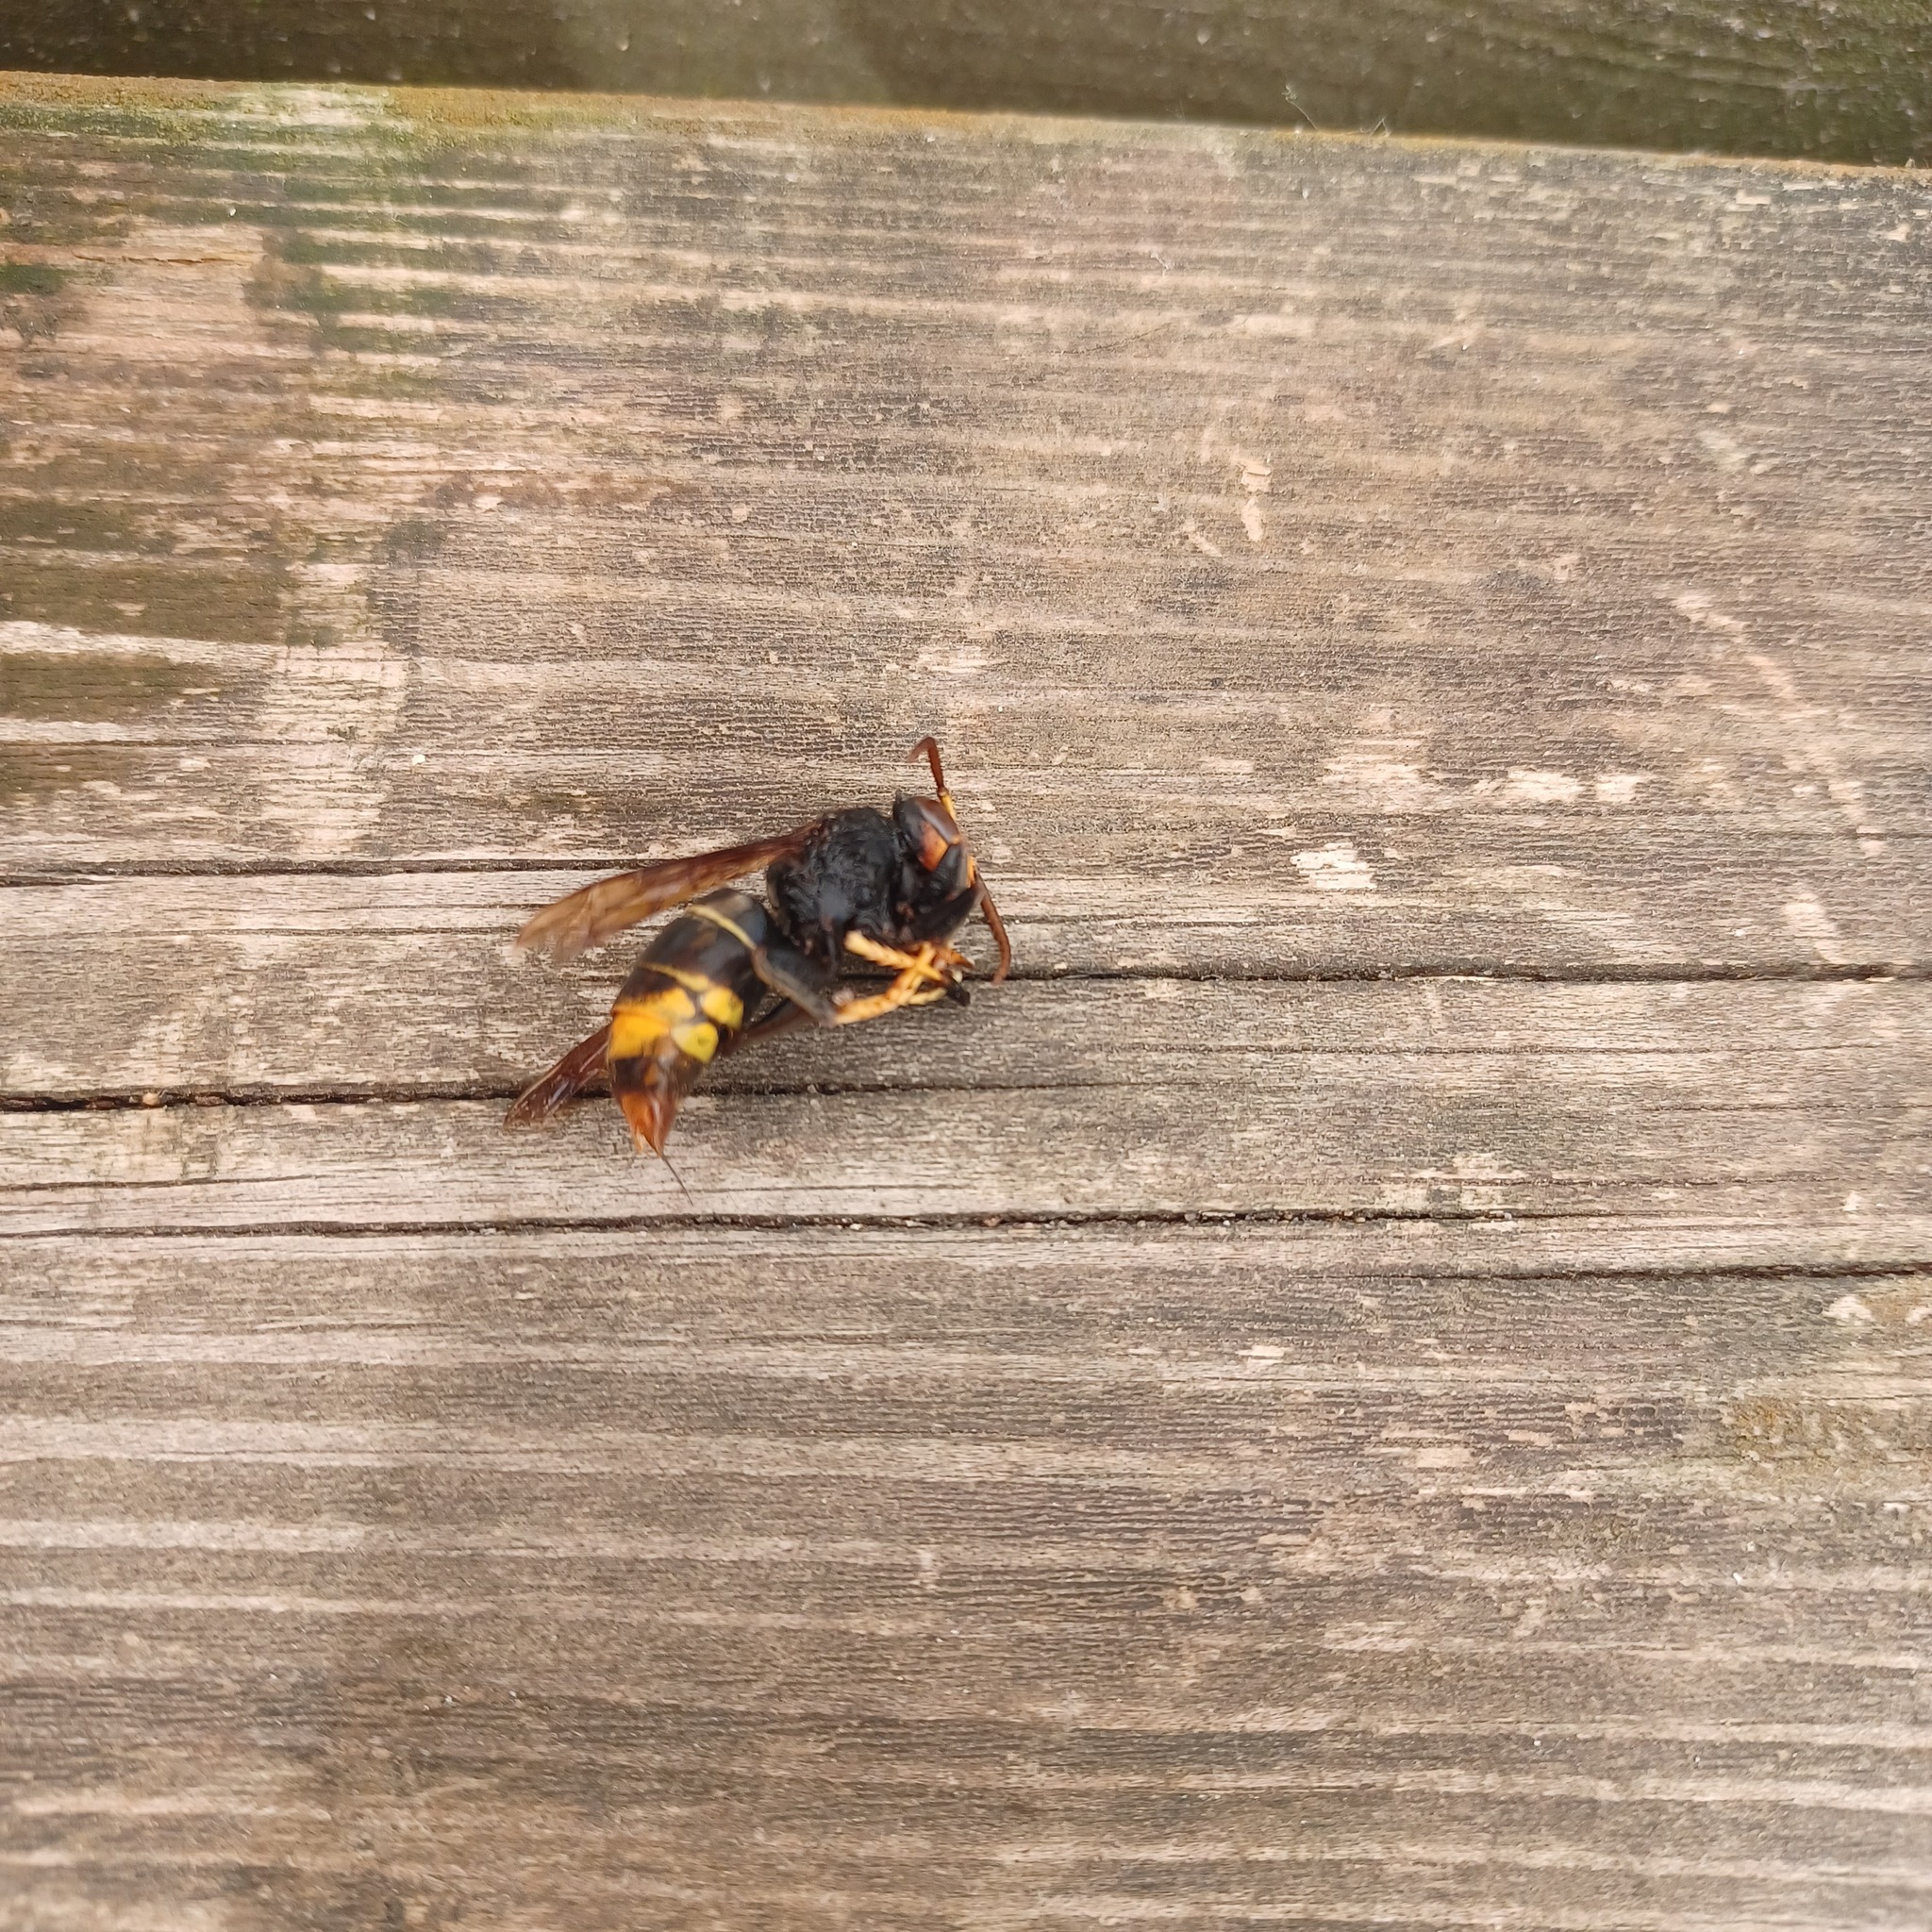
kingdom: Animalia
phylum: Arthropoda
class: Insecta
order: Hymenoptera
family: Vespidae
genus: Vespa
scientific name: Vespa velutina
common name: Asian hornet
